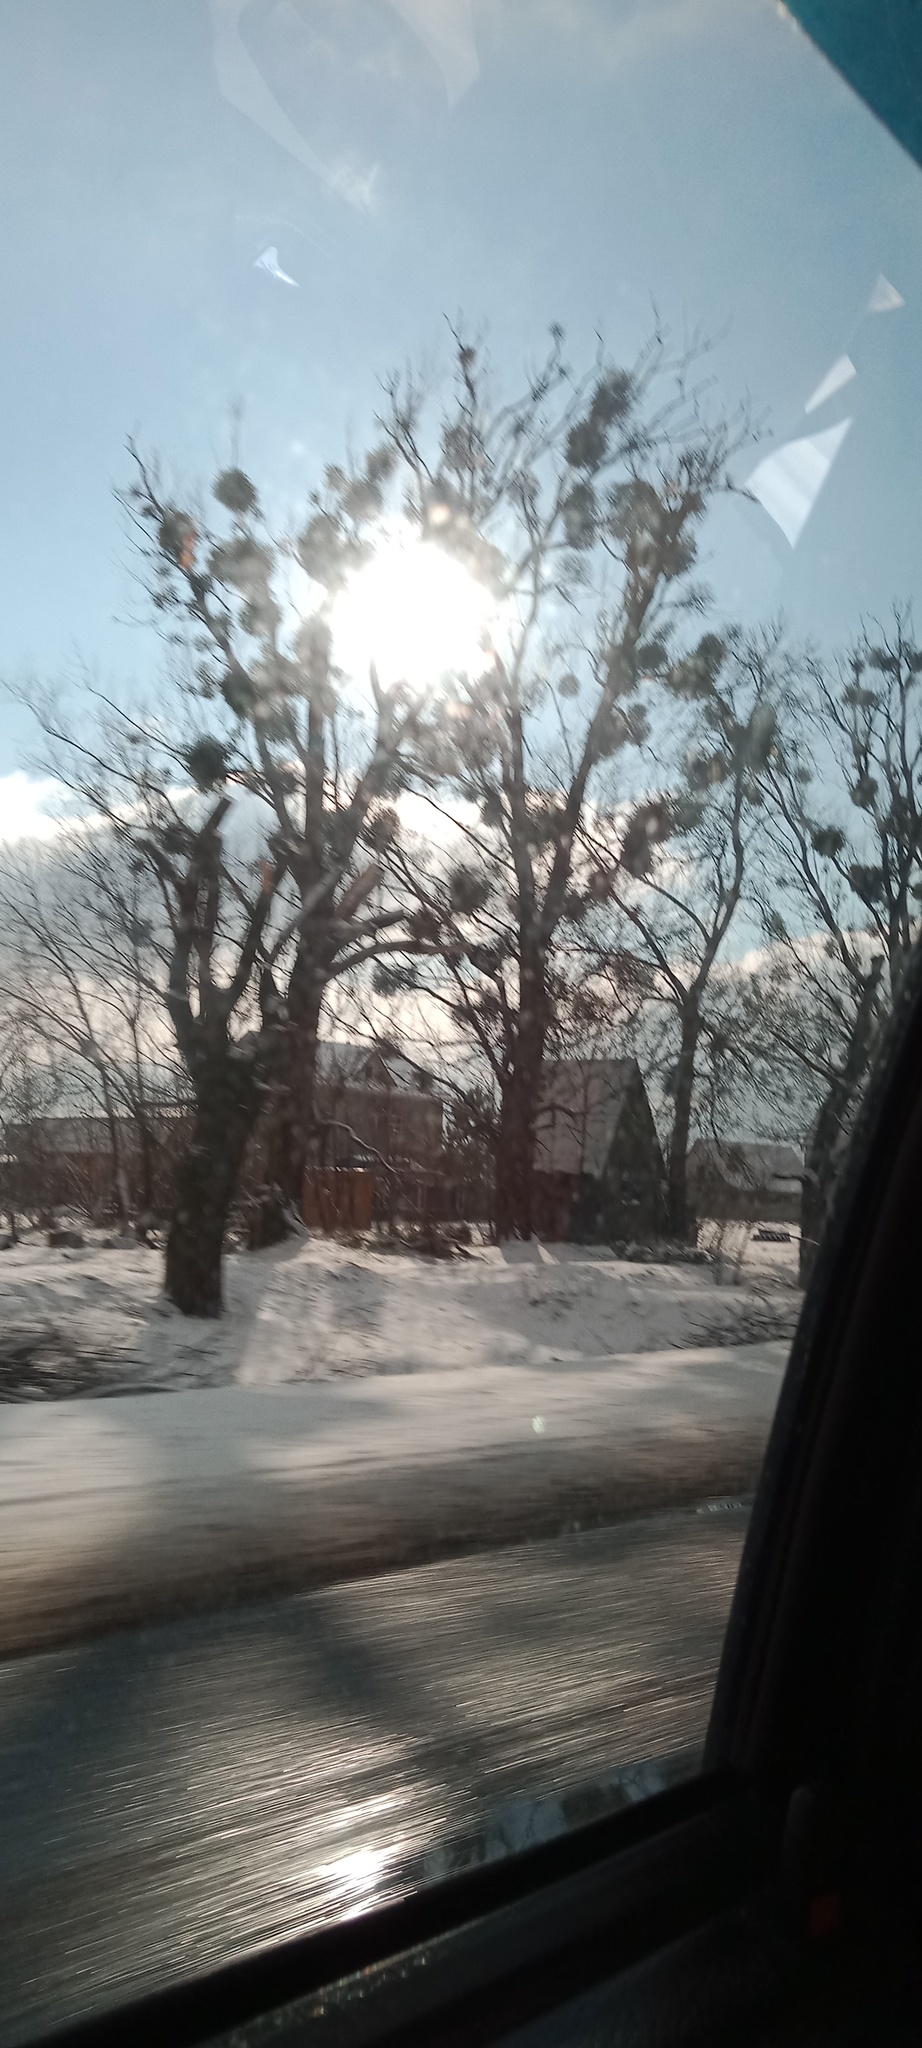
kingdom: Plantae
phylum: Tracheophyta
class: Magnoliopsida
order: Santalales
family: Viscaceae
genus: Viscum
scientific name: Viscum album
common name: Mistletoe
